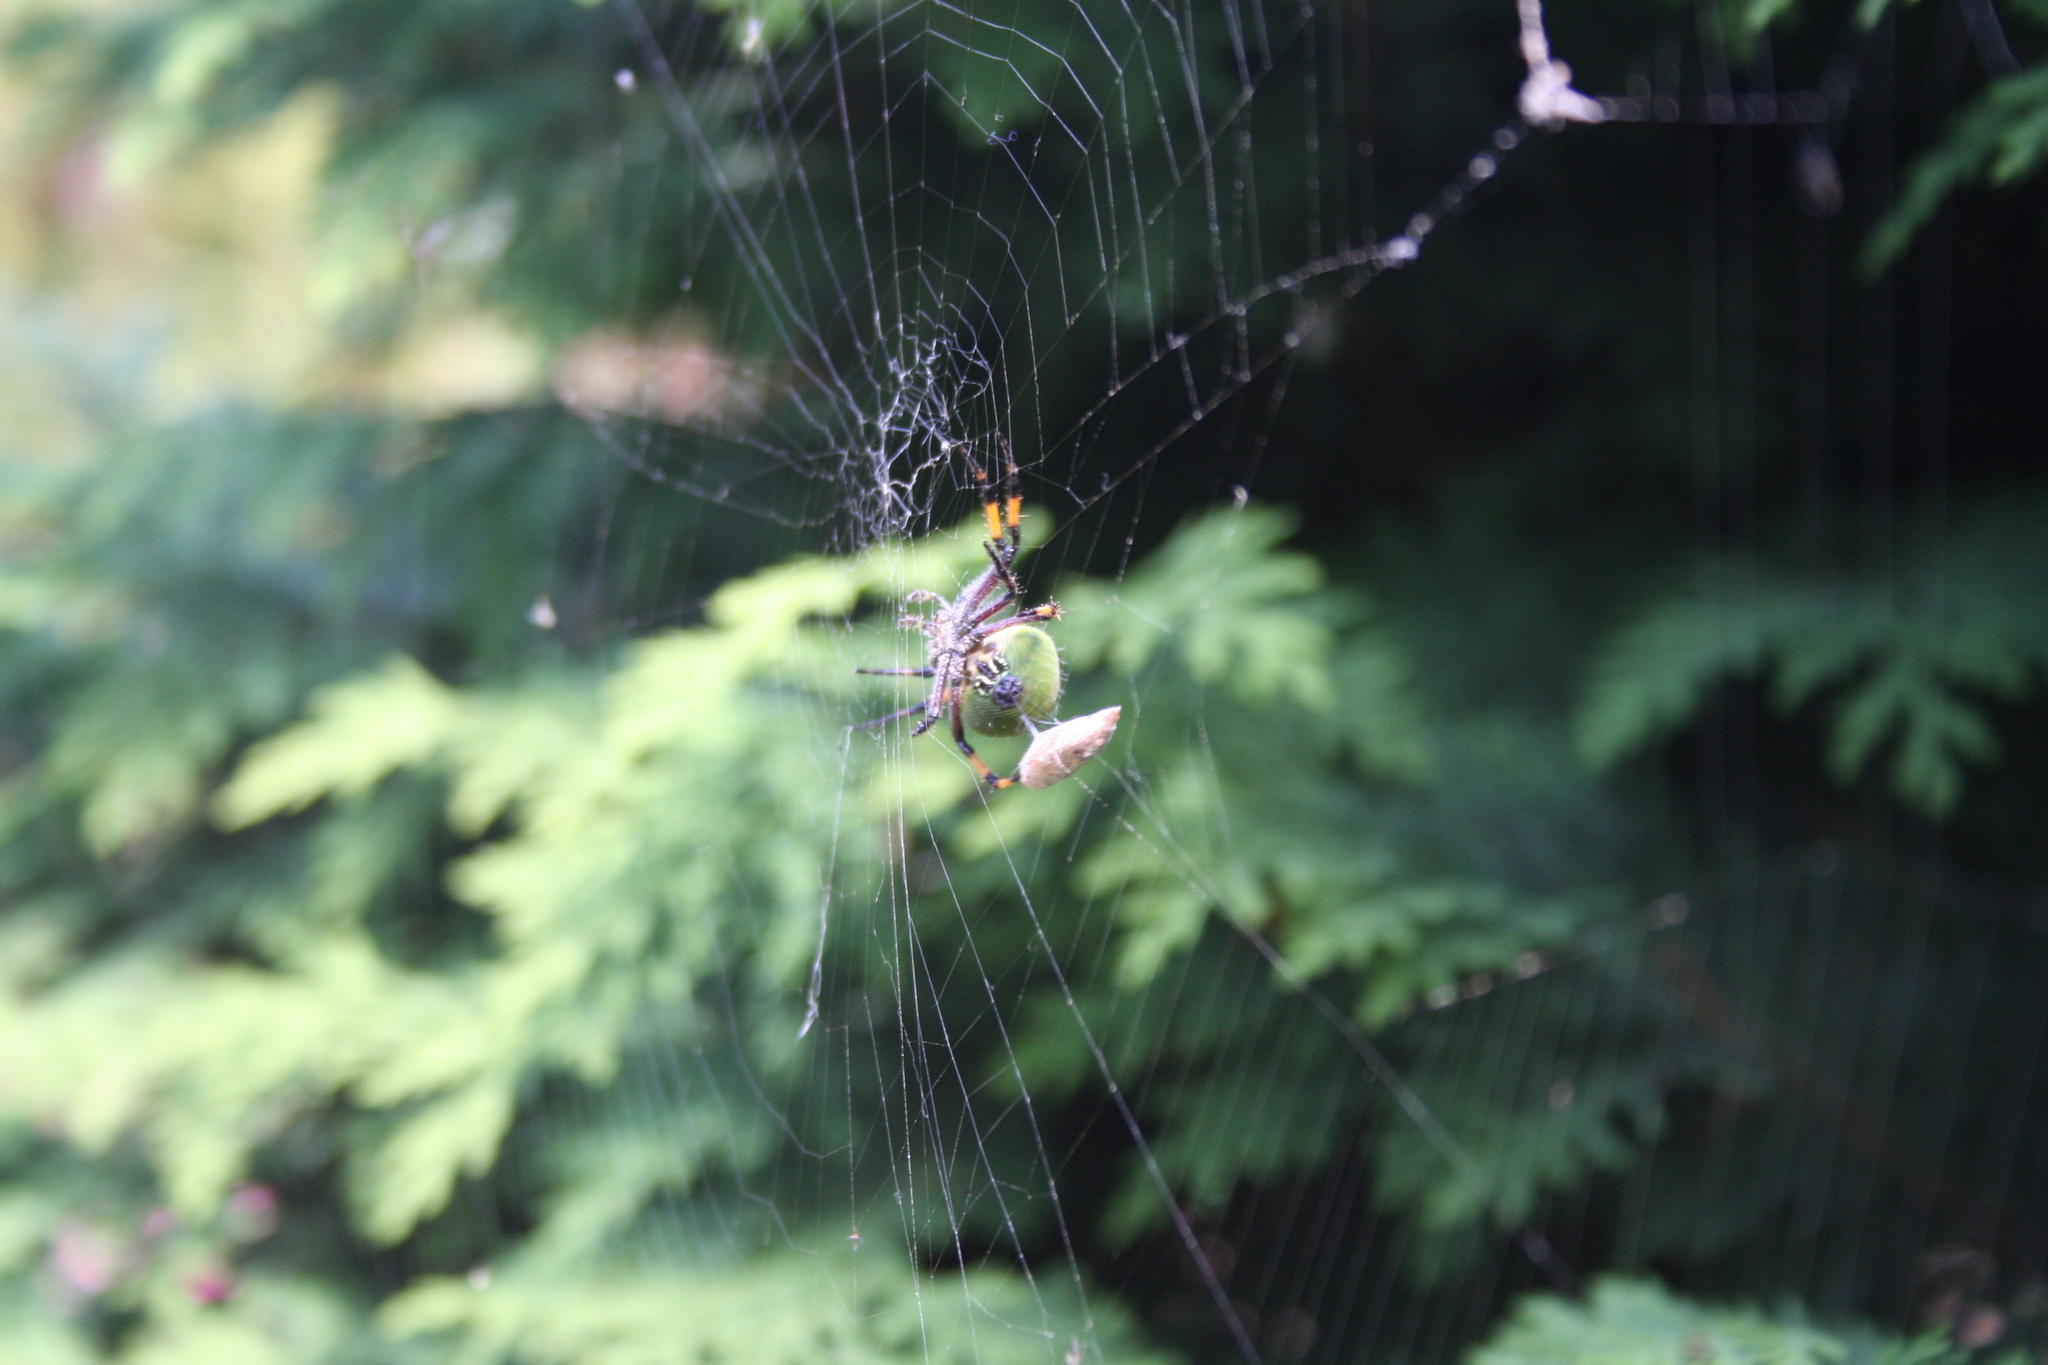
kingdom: Animalia
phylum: Arthropoda
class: Arachnida
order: Araneae
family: Araneidae
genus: Molinaranea
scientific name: Molinaranea magellanica
